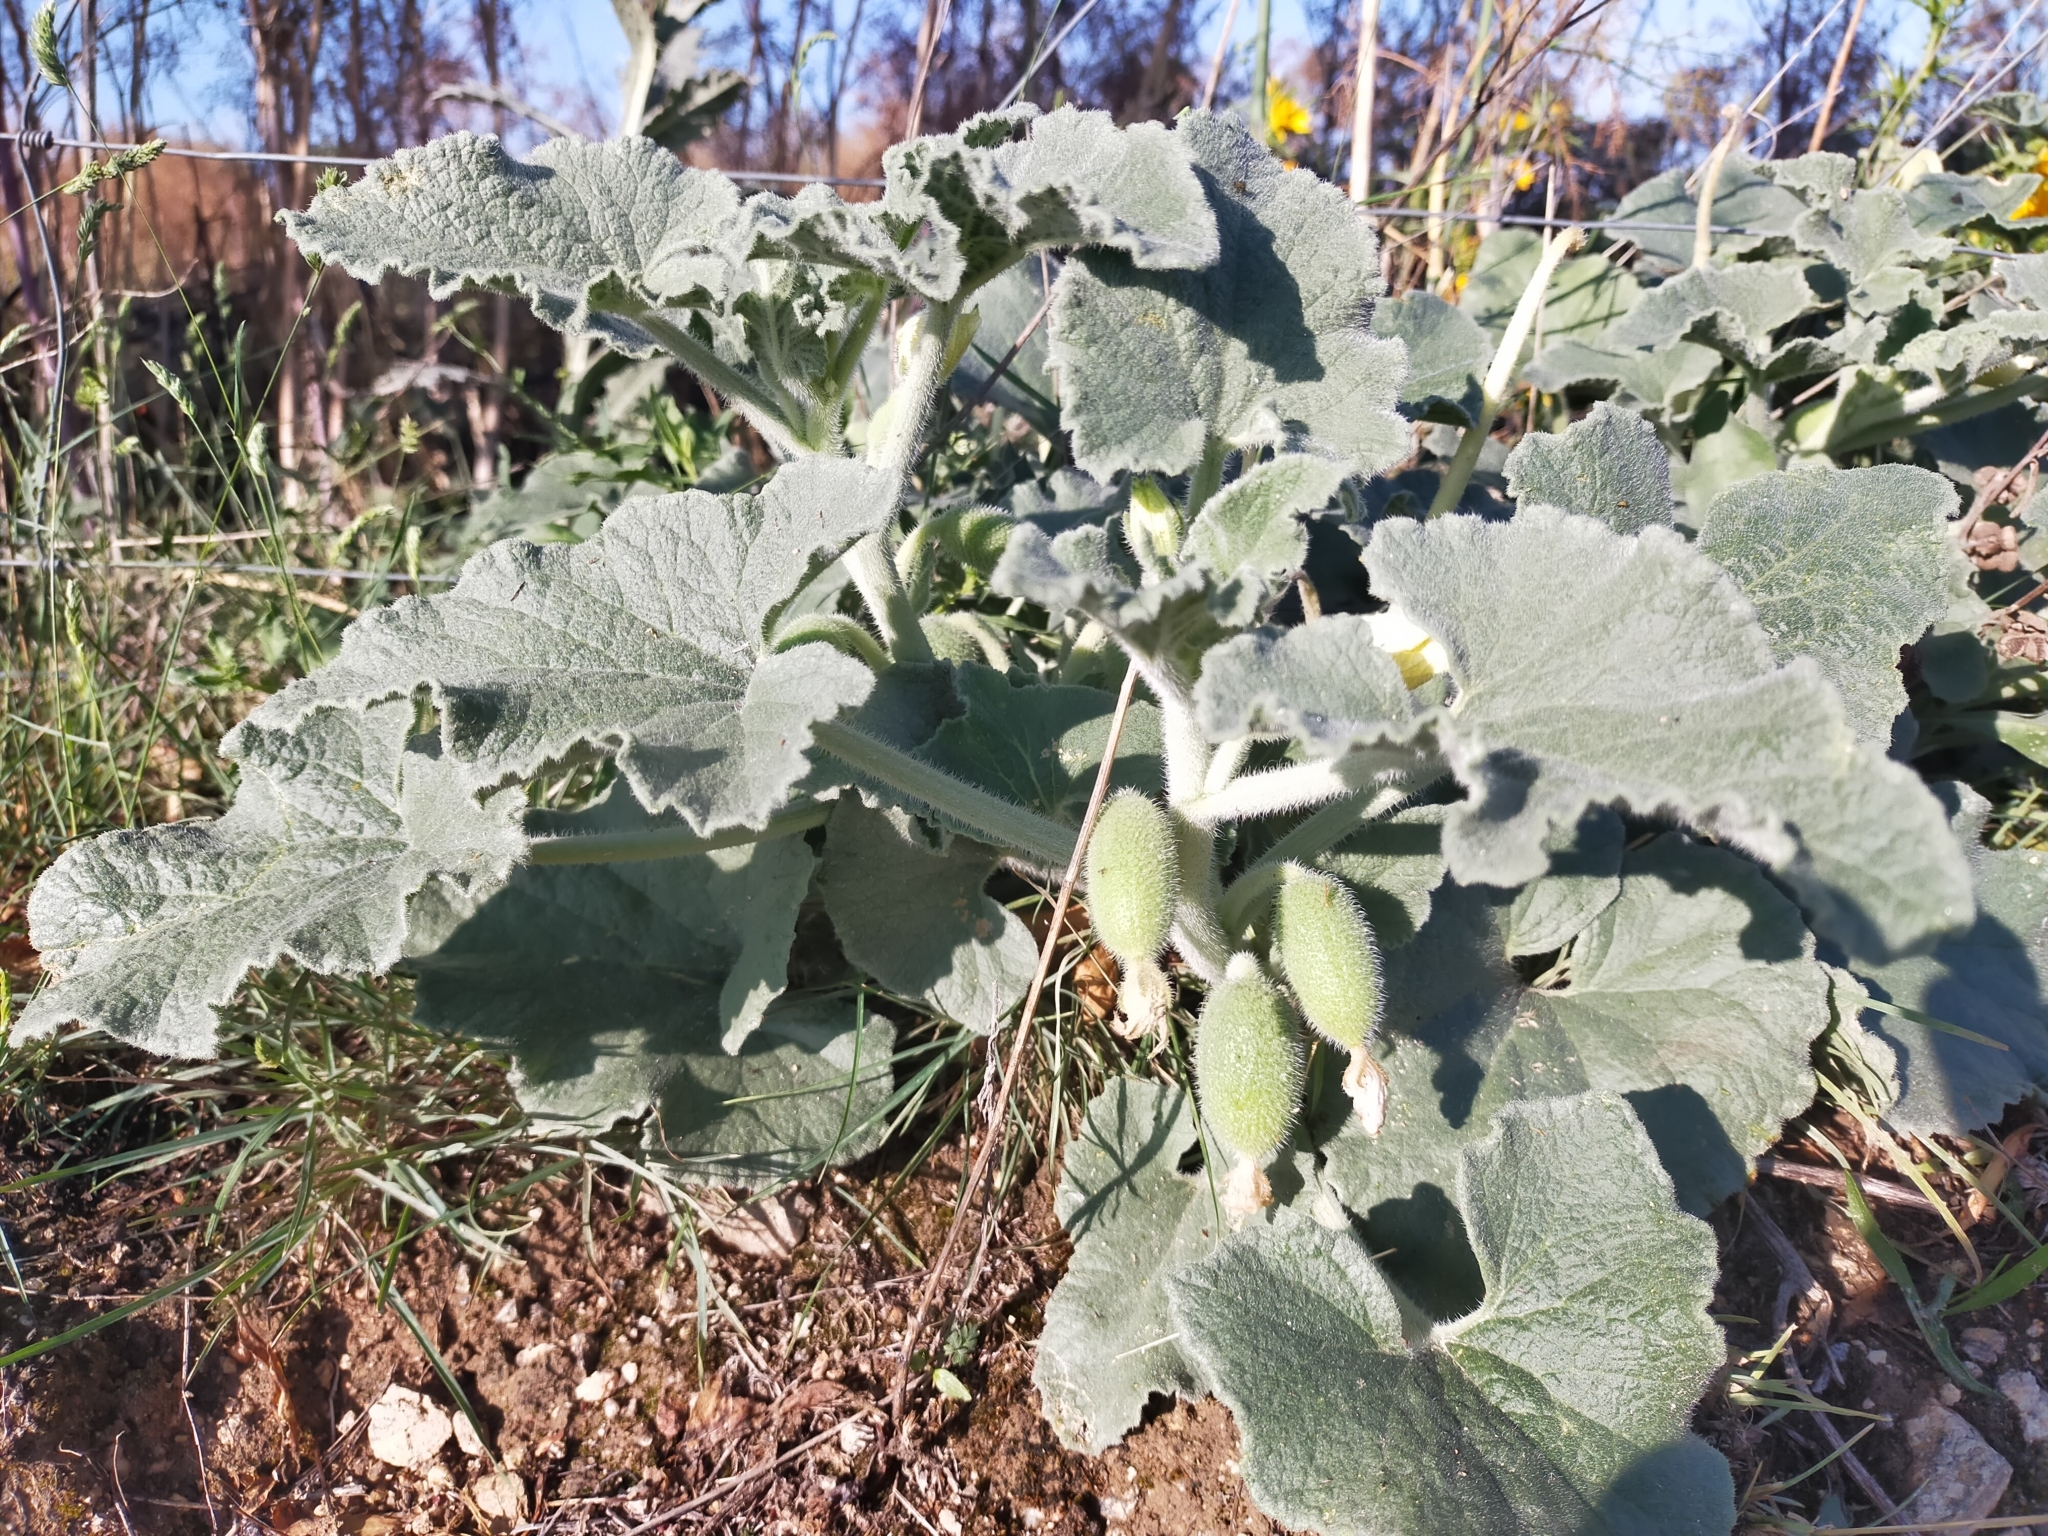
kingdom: Plantae
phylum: Tracheophyta
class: Magnoliopsida
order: Cucurbitales
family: Cucurbitaceae
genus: Ecballium
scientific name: Ecballium elaterium
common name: Squirting cucumber
